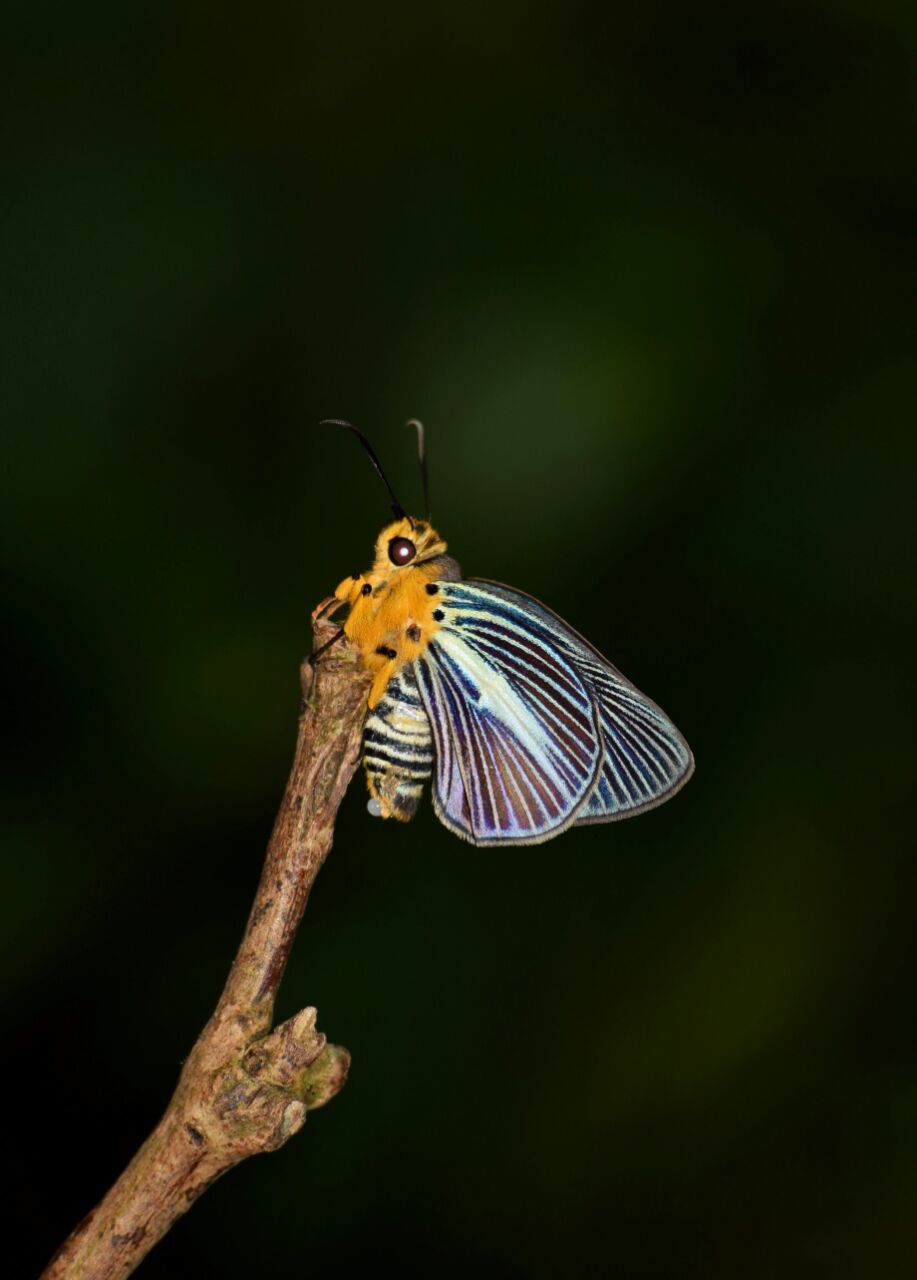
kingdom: Animalia
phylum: Arthropoda
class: Insecta
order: Lepidoptera
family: Hesperiidae
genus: Bibasis
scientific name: Bibasis gomata
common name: Pale green awlet
